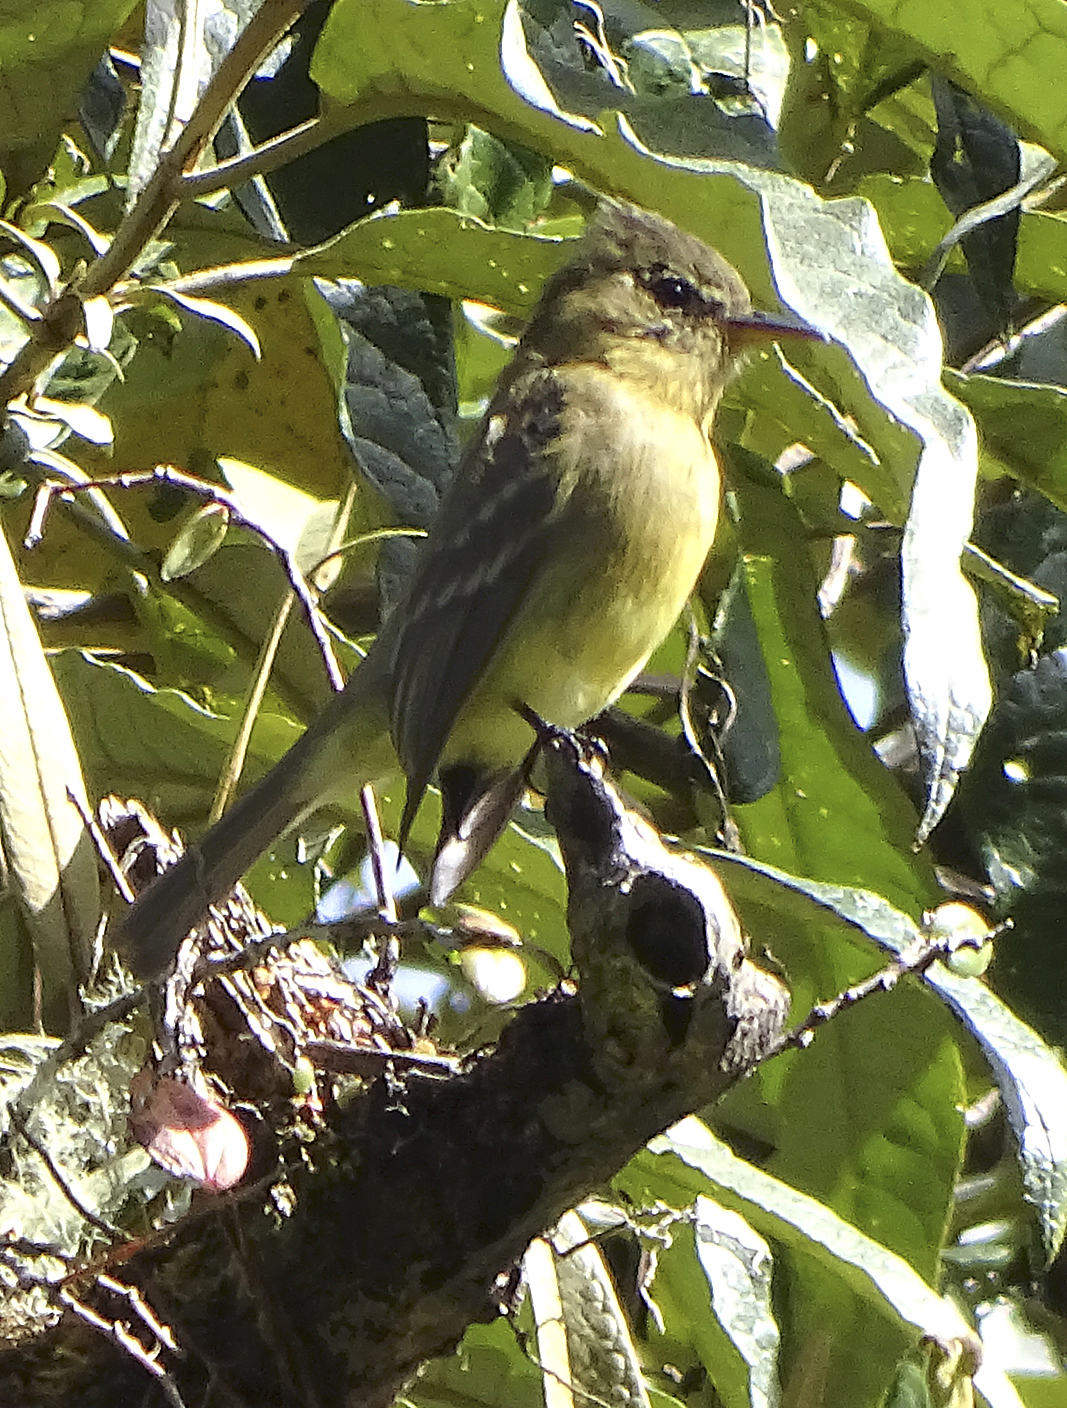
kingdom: Animalia
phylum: Chordata
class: Aves
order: Passeriformes
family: Tyrannidae
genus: Contopus
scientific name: Contopus ochraceus
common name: Ochraceous pewee
